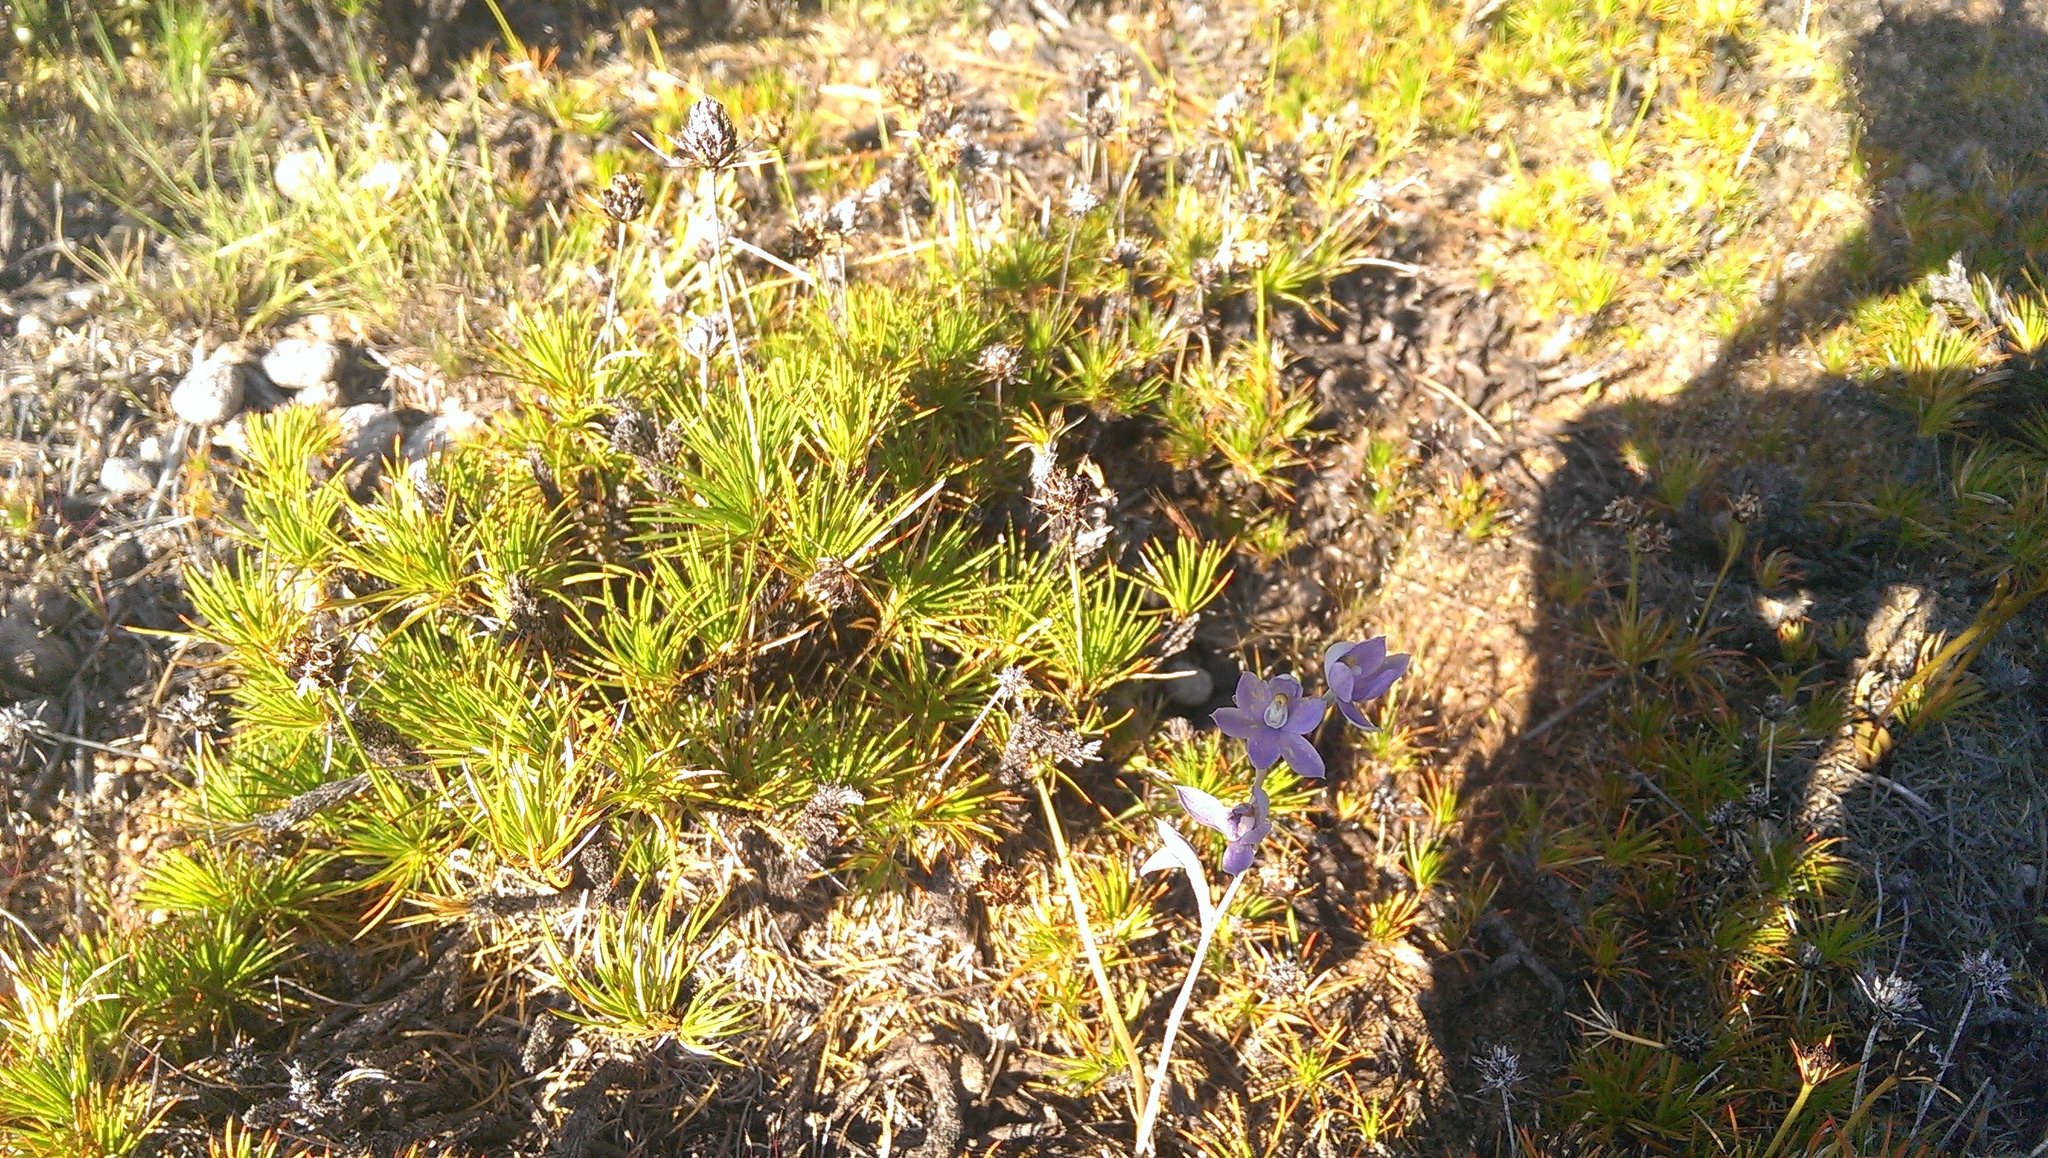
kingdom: Plantae
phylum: Tracheophyta
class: Liliopsida
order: Asparagales
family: Orchidaceae
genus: Thelymitra
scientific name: Thelymitra petrophila
